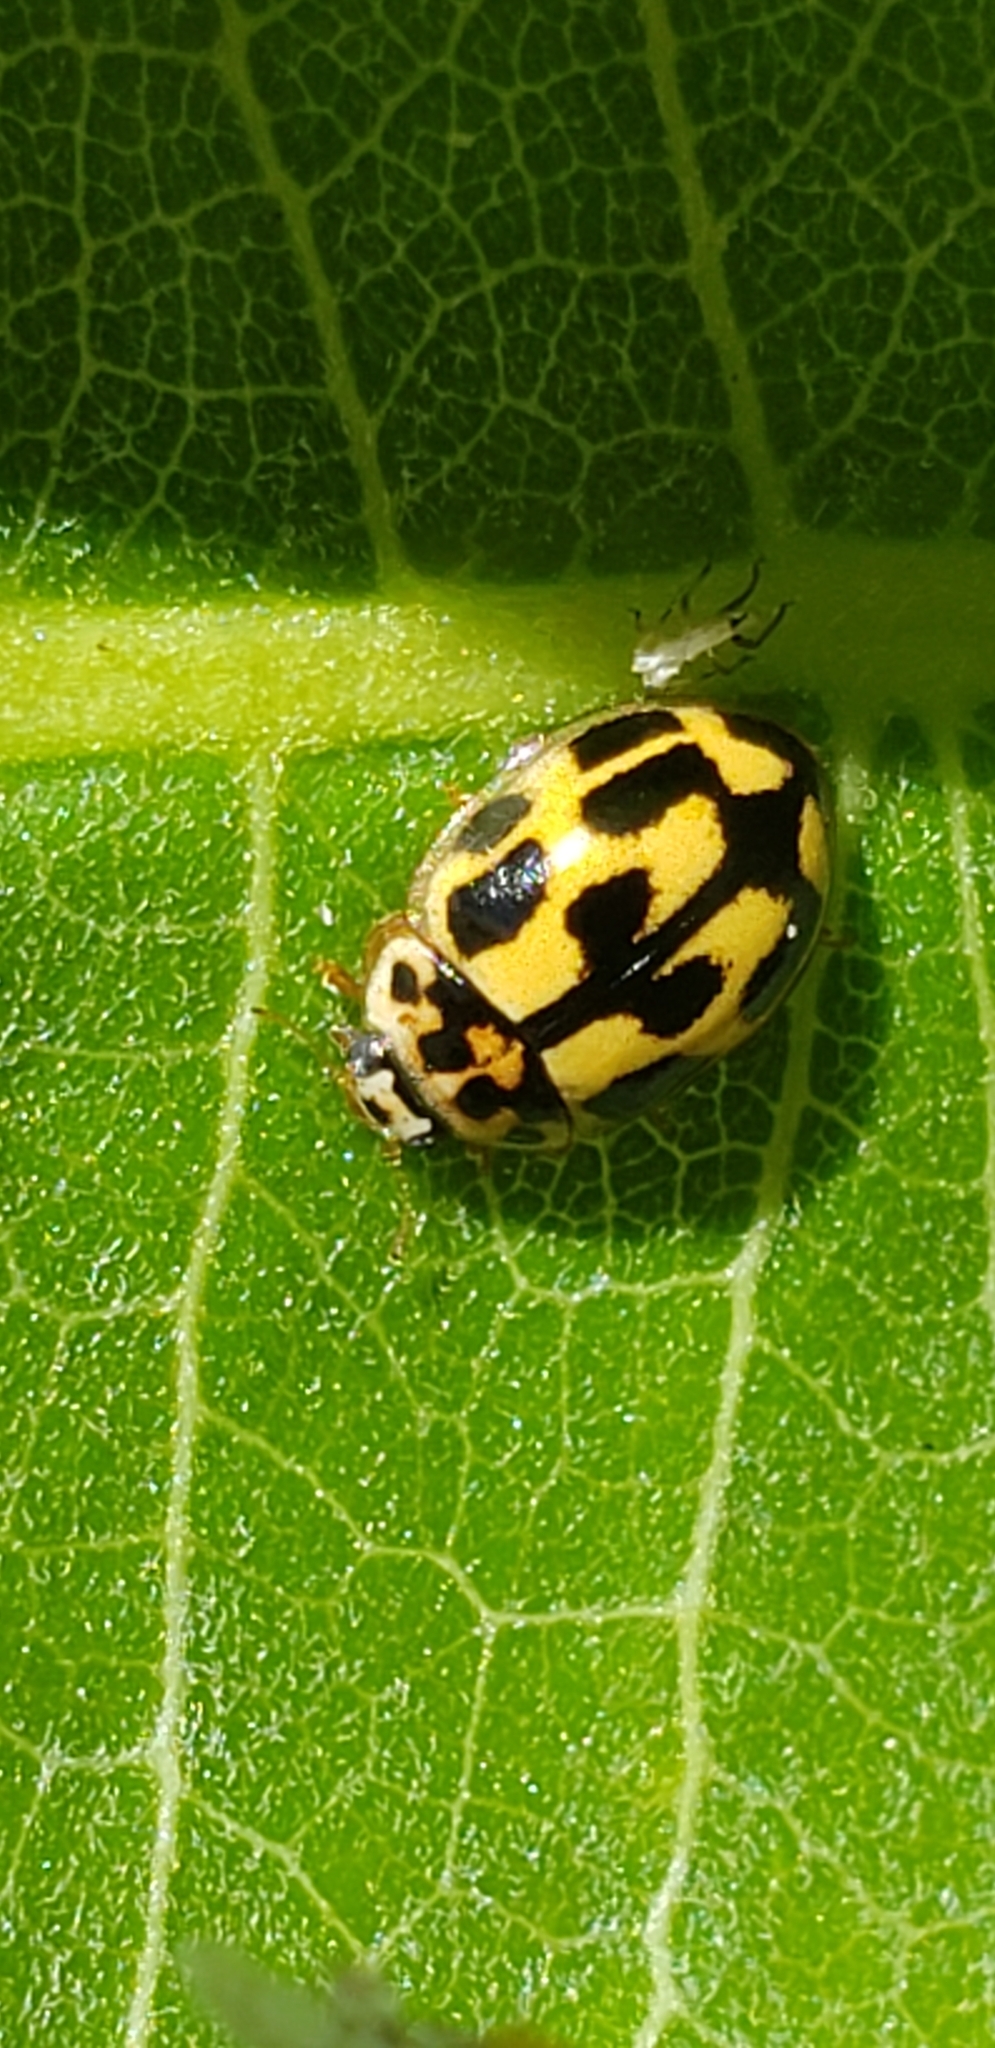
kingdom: Animalia
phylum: Arthropoda
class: Insecta
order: Coleoptera
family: Coccinellidae
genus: Propylaea
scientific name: Propylaea quatuordecimpunctata
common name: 14-spotted ladybird beetle
